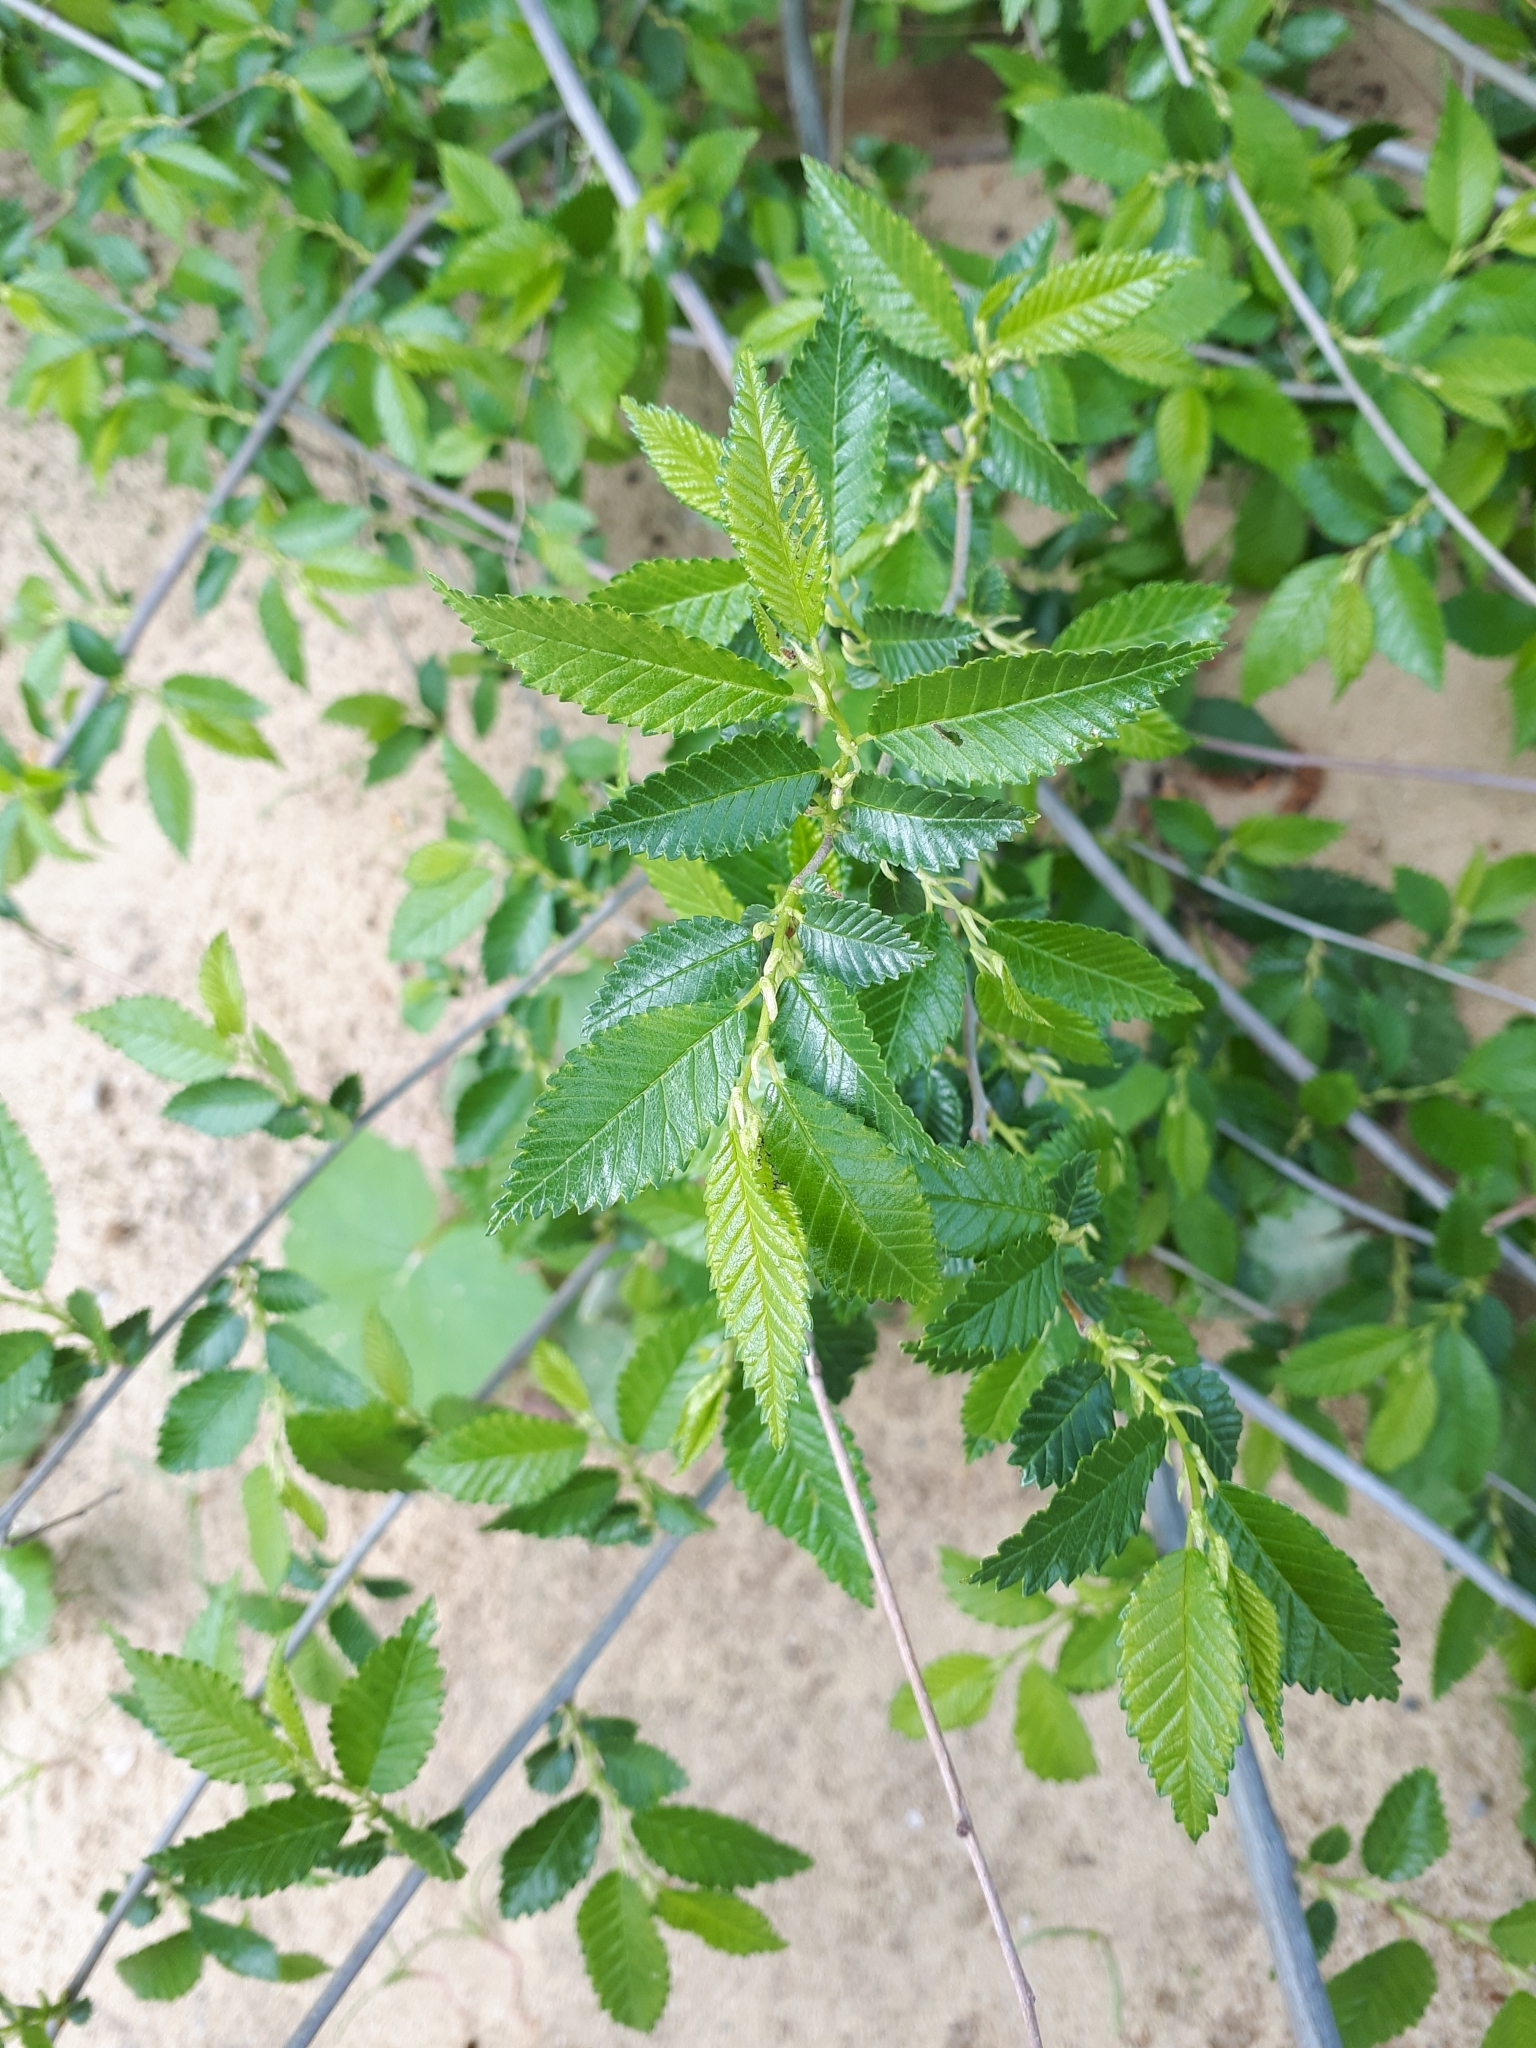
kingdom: Plantae
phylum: Tracheophyta
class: Magnoliopsida
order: Rosales
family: Ulmaceae
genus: Ulmus
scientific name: Ulmus pumila
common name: Siberian elm
